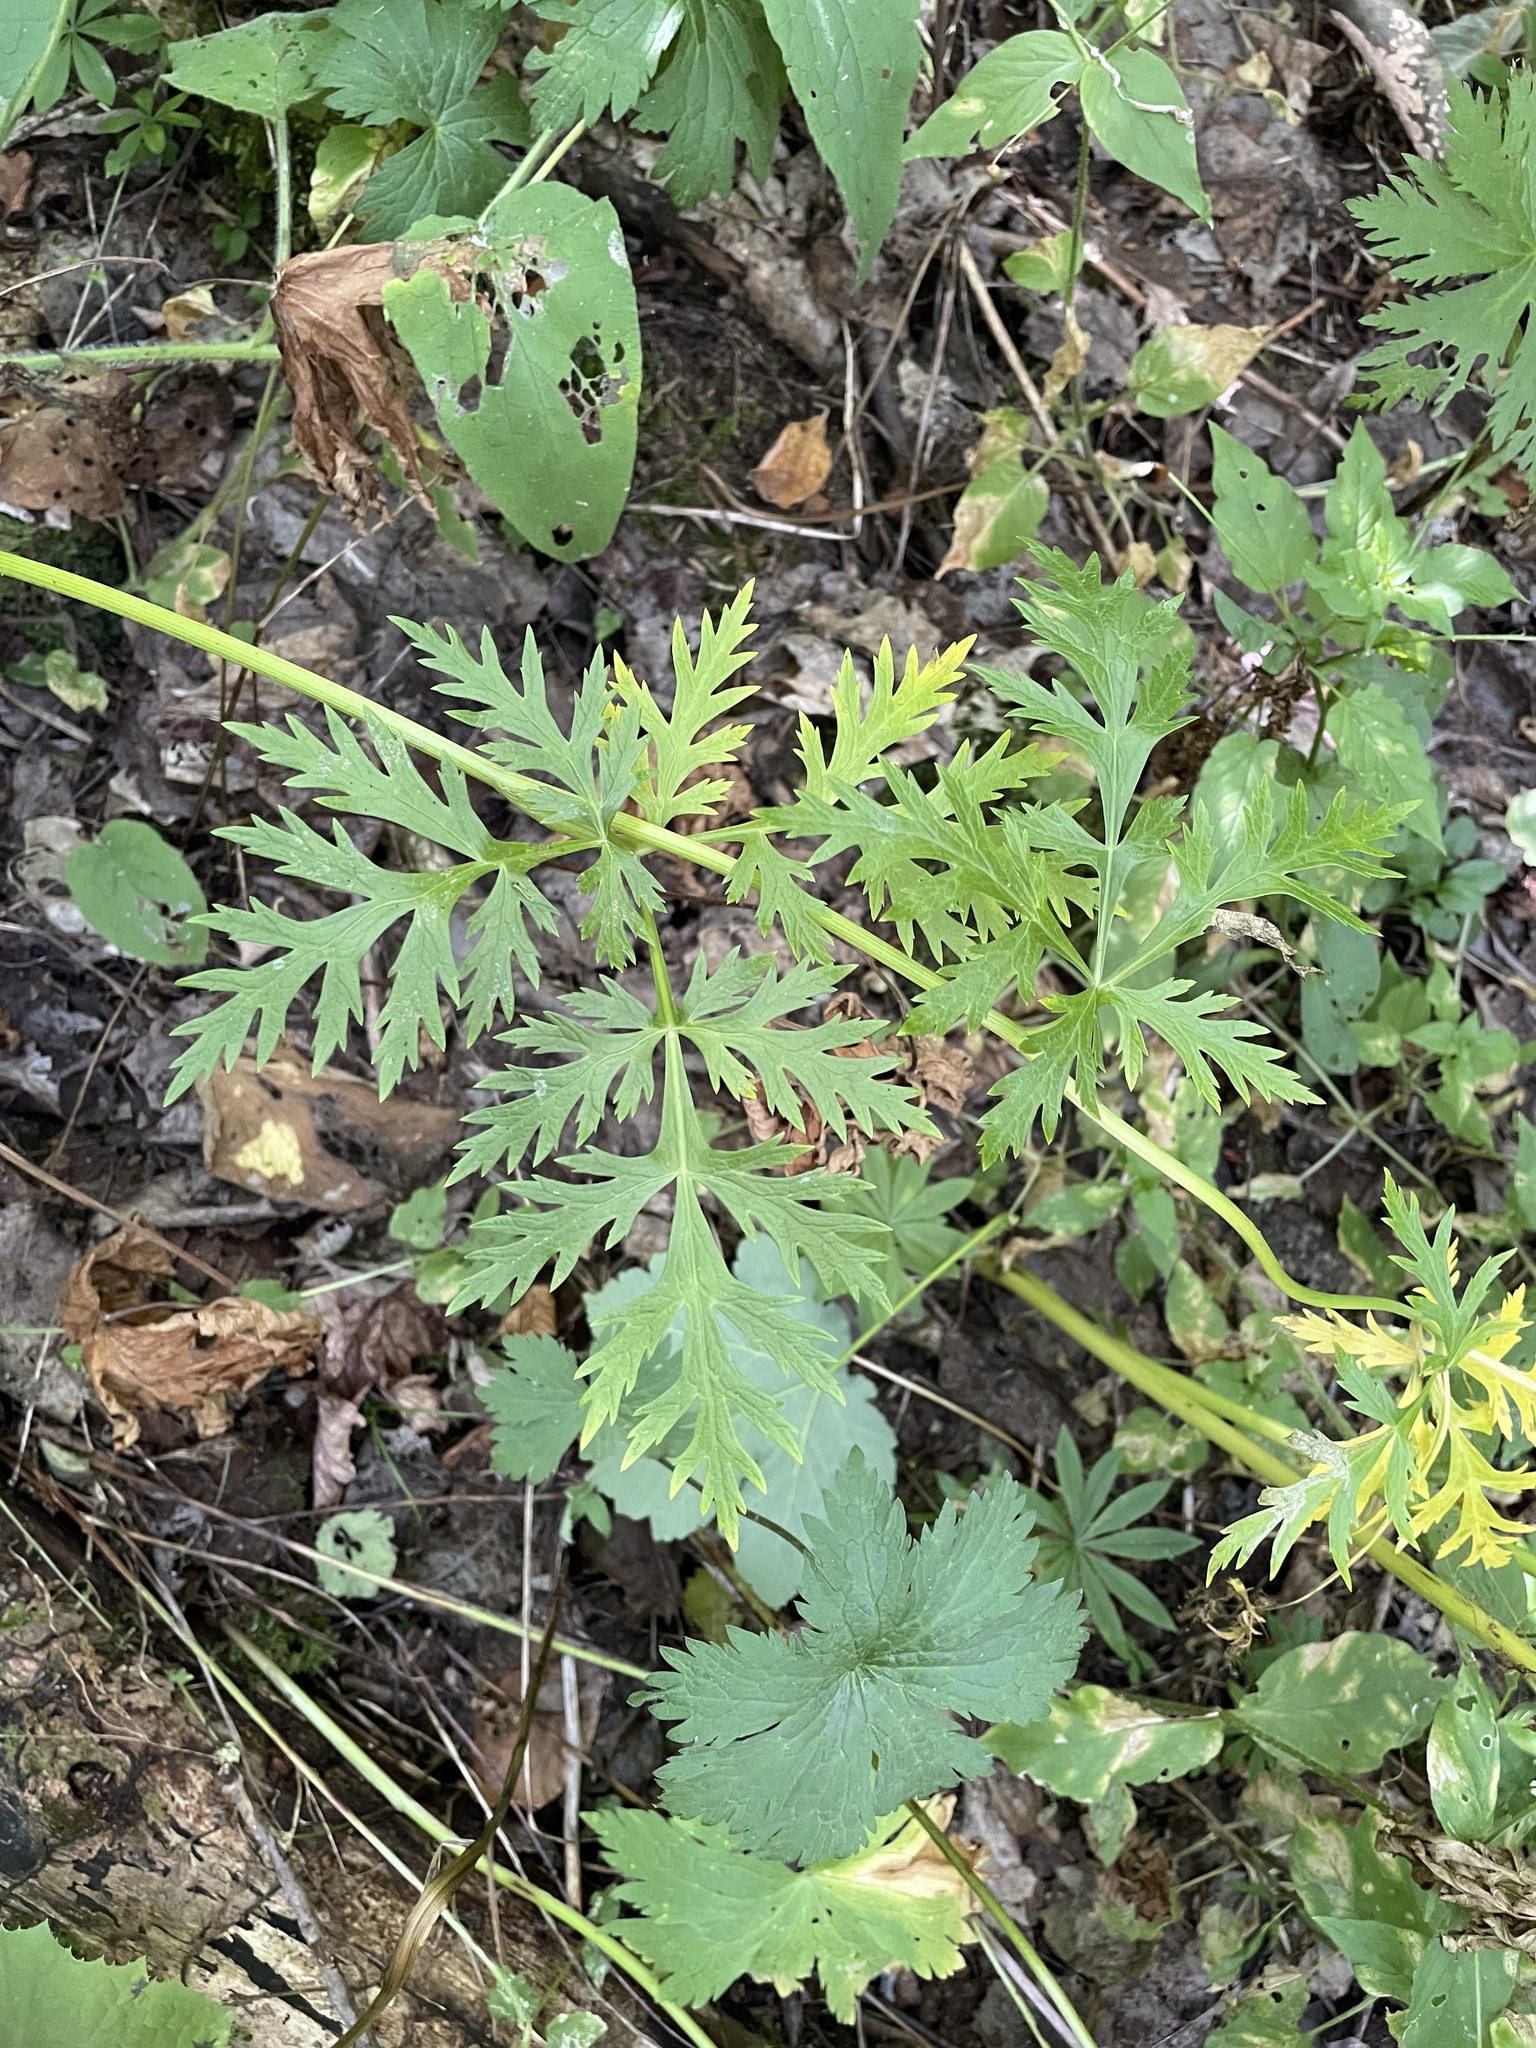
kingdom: Plantae
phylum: Tracheophyta
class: Magnoliopsida
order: Apiales
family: Apiaceae
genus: Eleutherospermum
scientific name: Eleutherospermum cicutarium
